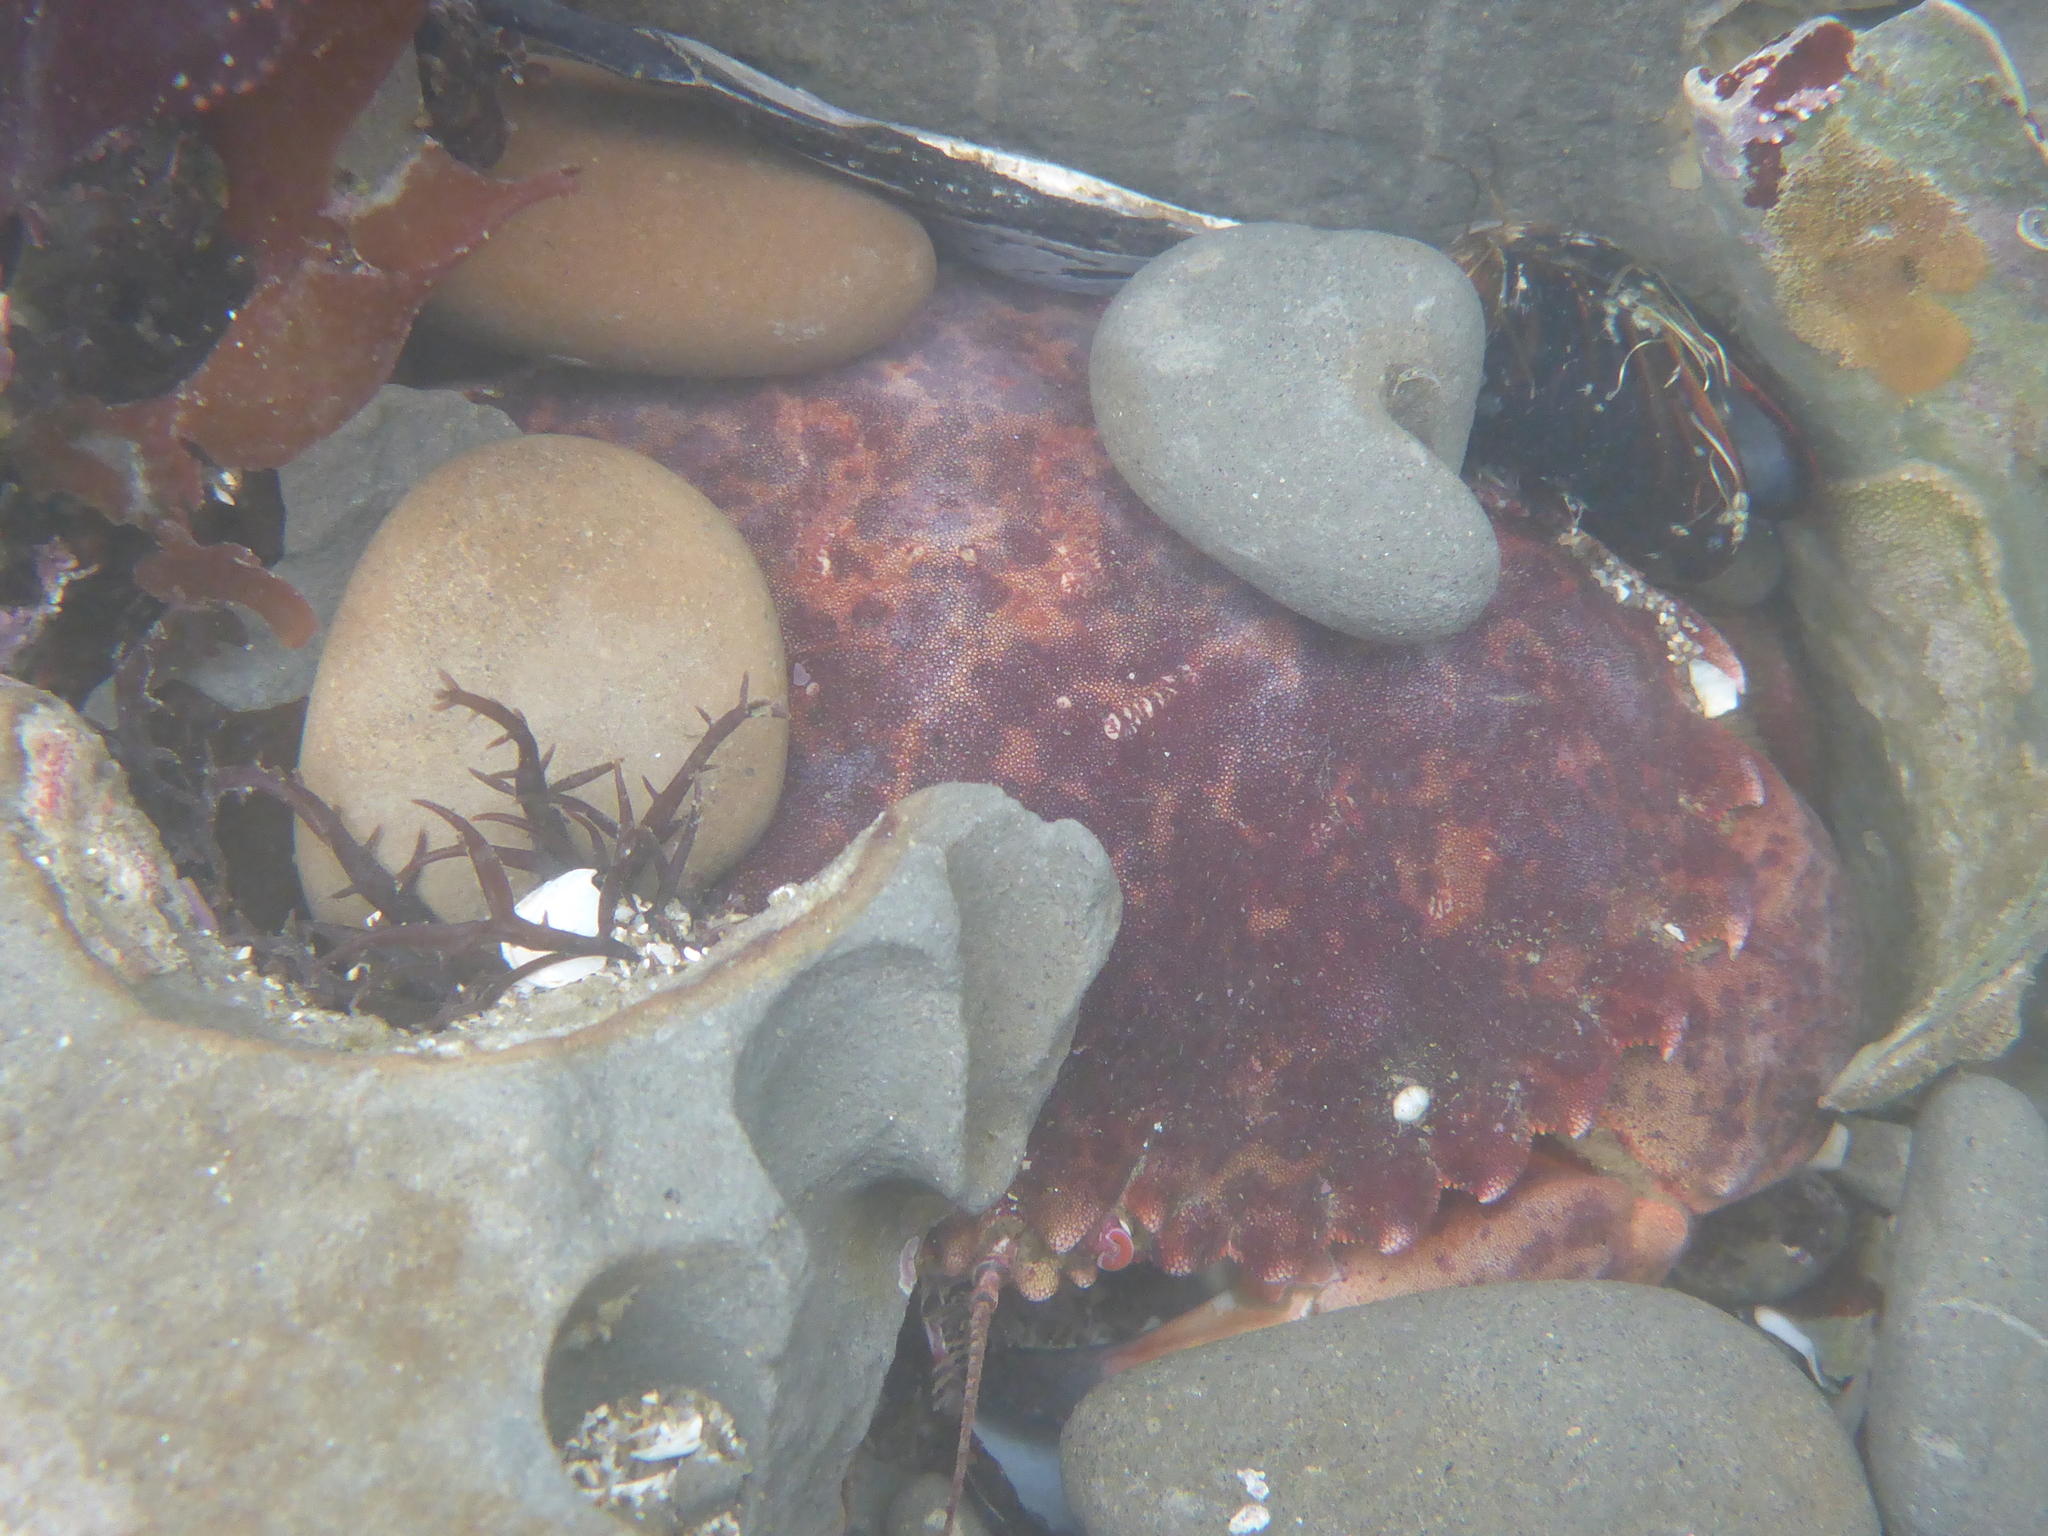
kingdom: Animalia
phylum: Arthropoda
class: Malacostraca
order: Decapoda
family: Cancridae
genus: Romaleon
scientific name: Romaleon antennarium
